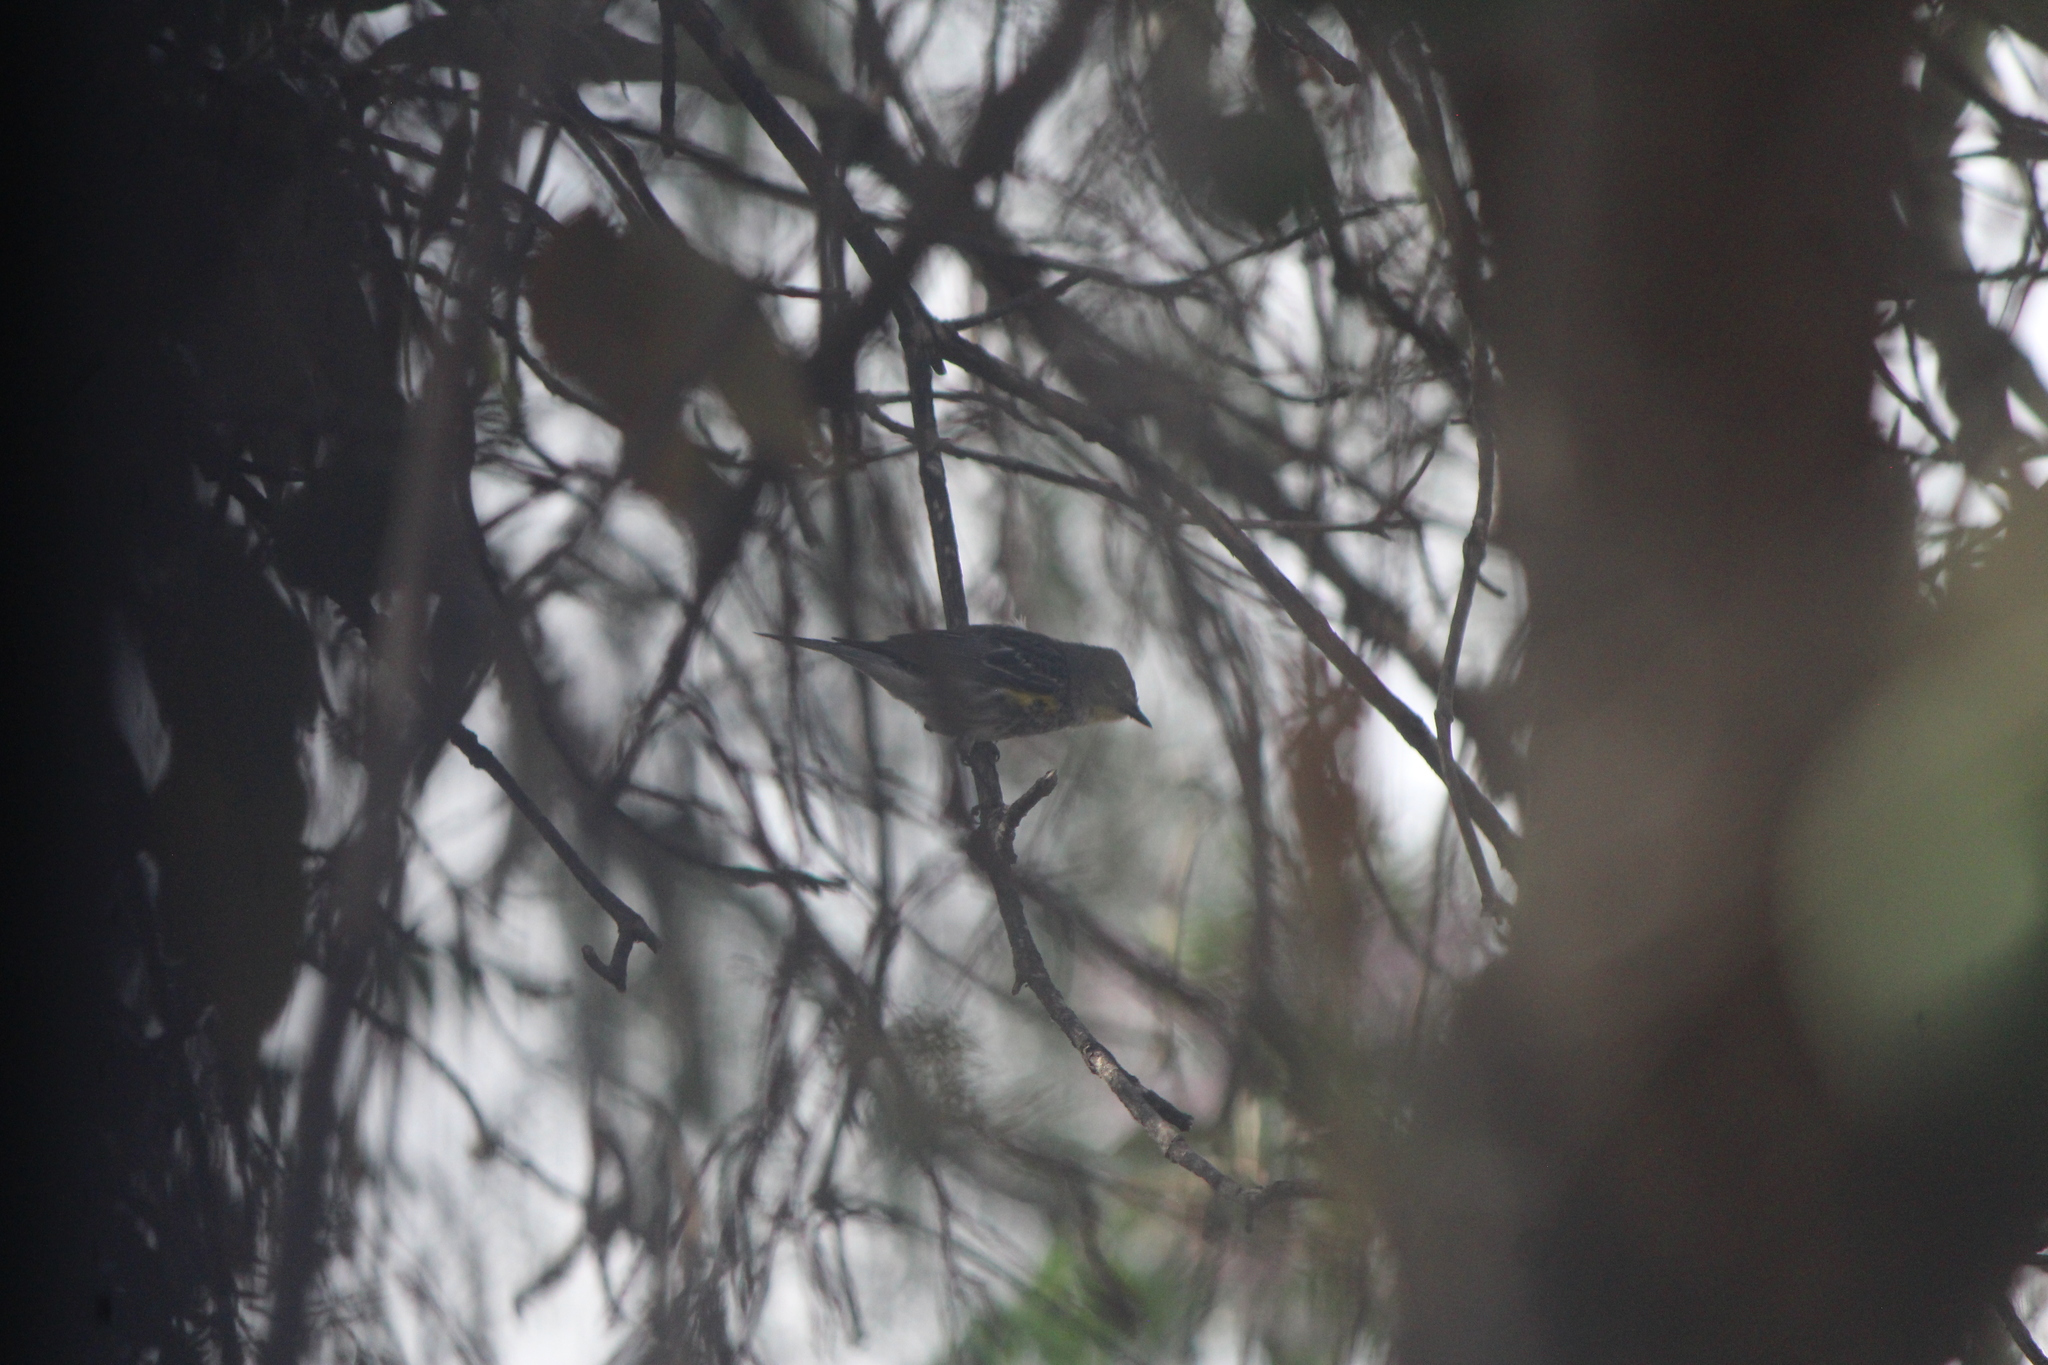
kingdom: Animalia
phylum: Chordata
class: Aves
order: Passeriformes
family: Parulidae
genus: Setophaga
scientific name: Setophaga auduboni
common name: Audubon's warbler
